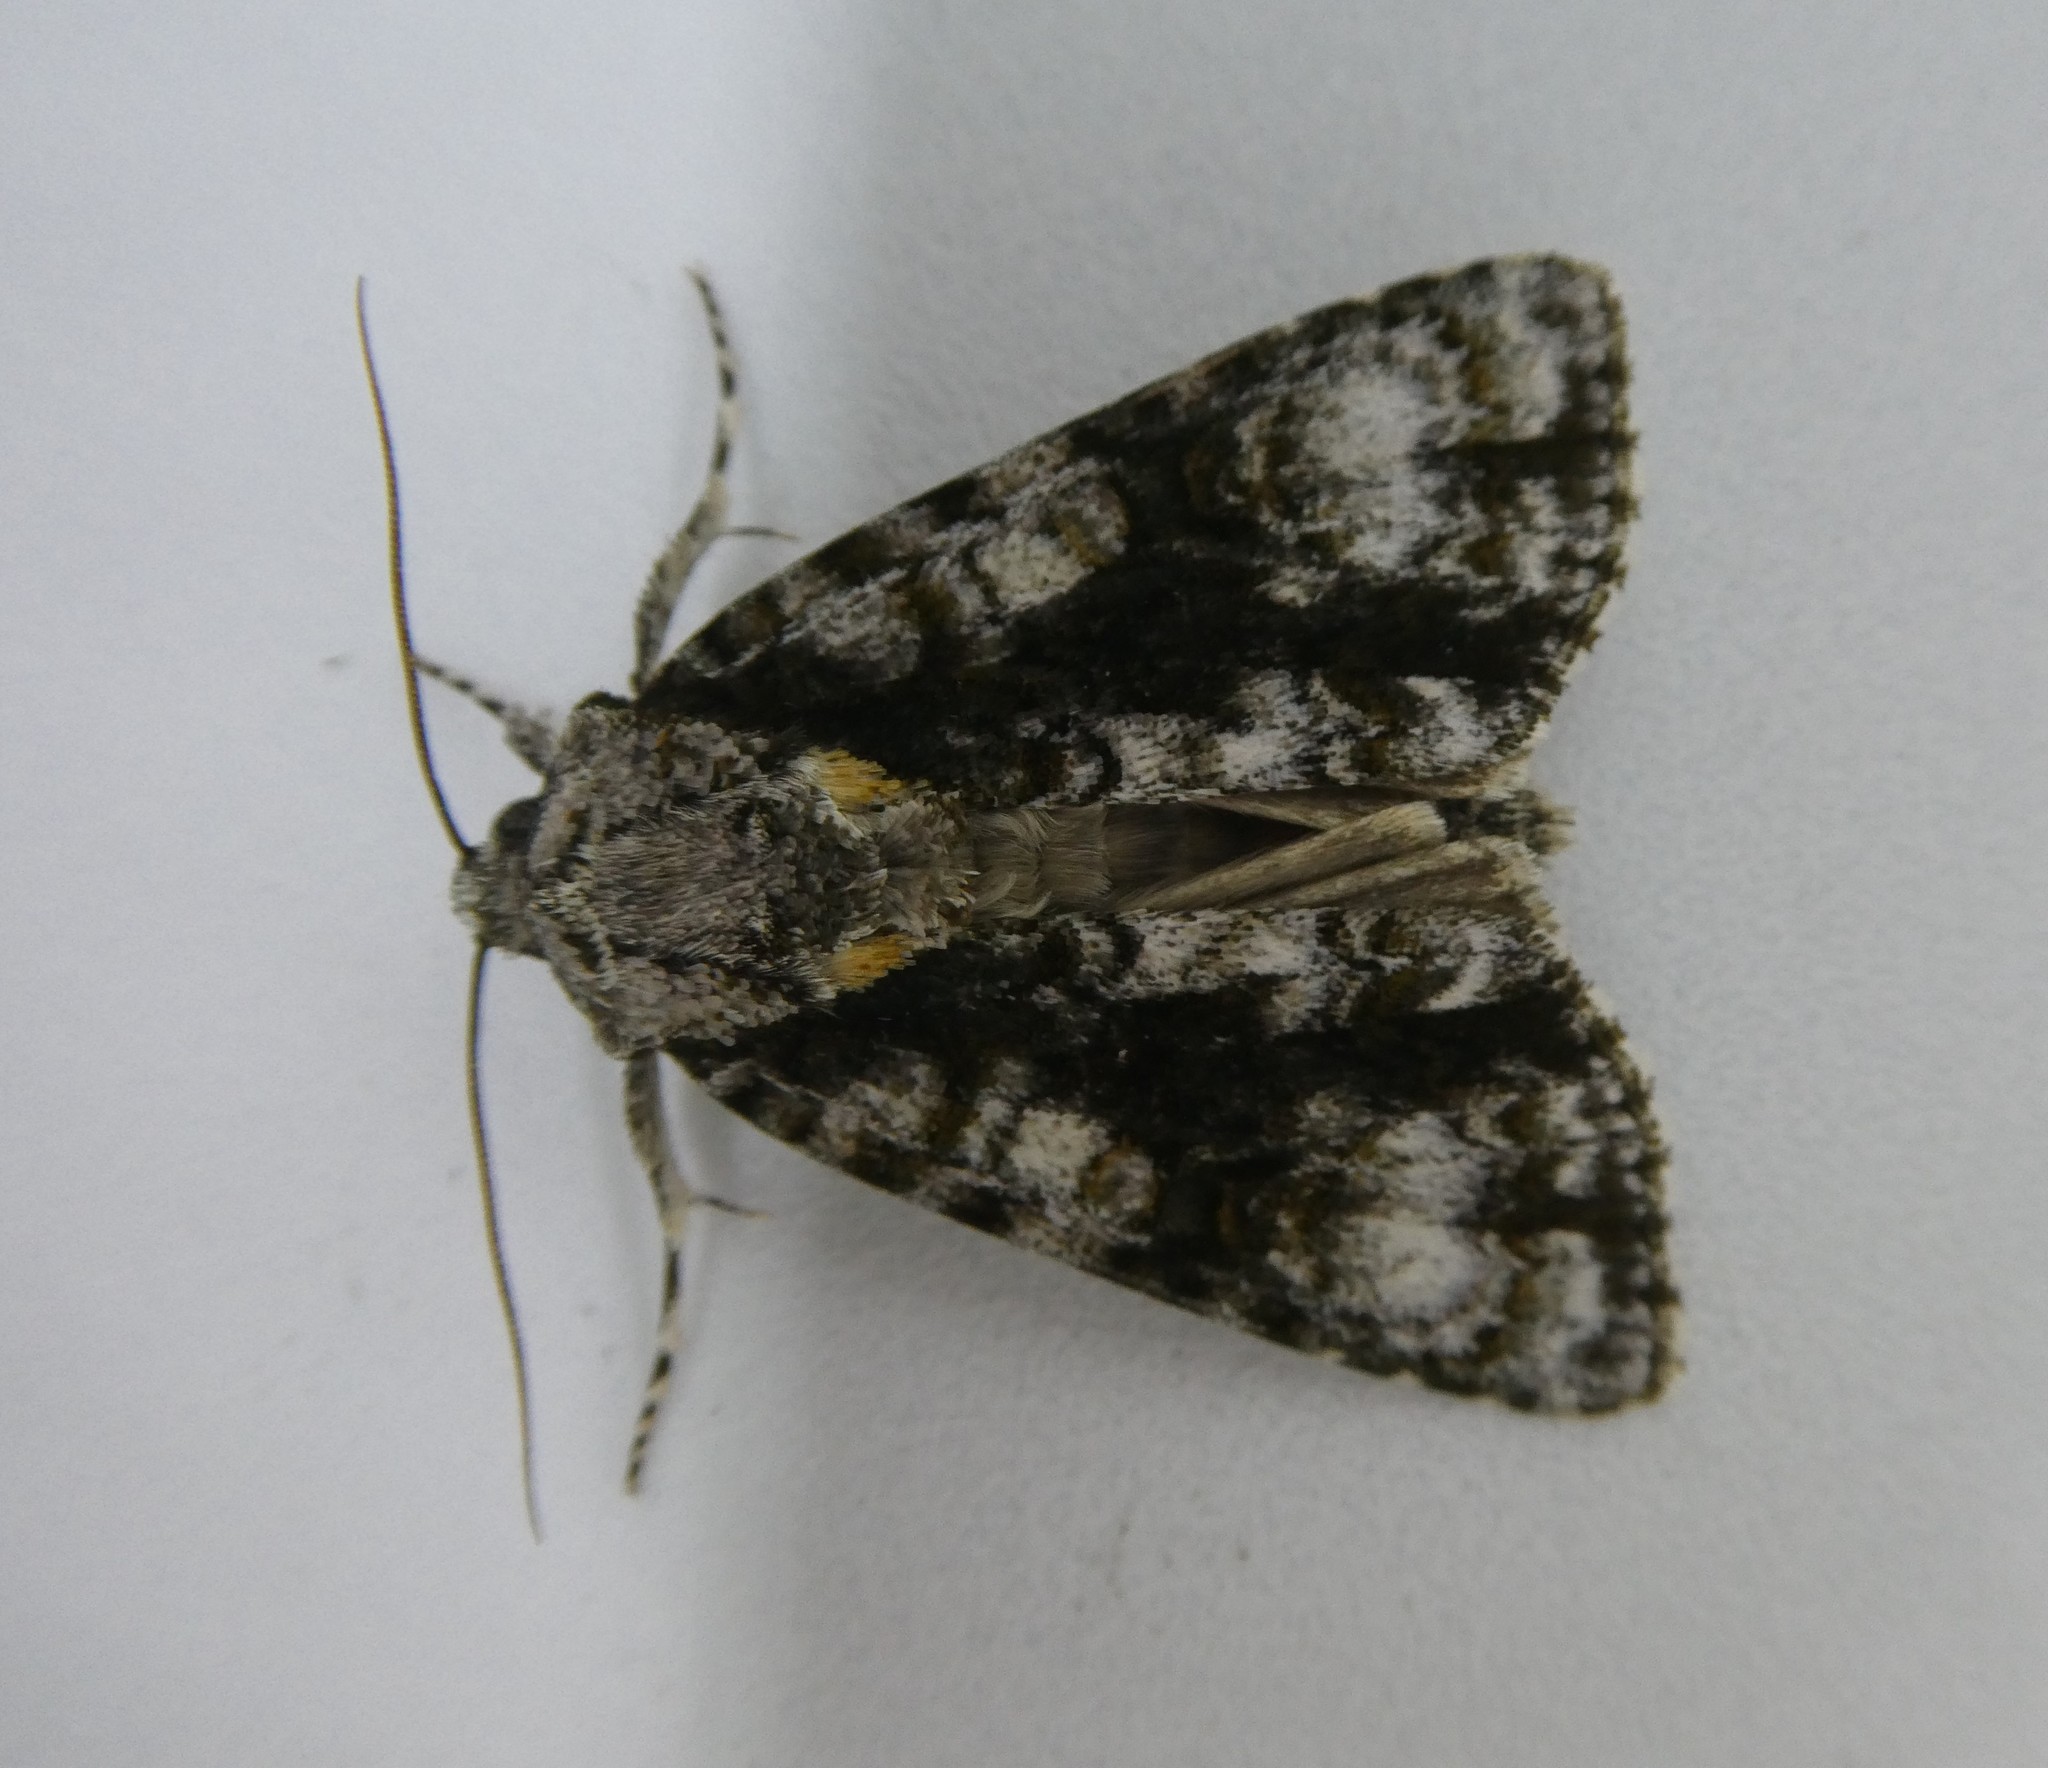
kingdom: Animalia
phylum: Arthropoda
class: Insecta
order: Lepidoptera
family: Noctuidae
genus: Acronicta
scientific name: Acronicta superans
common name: Splendid dagger
